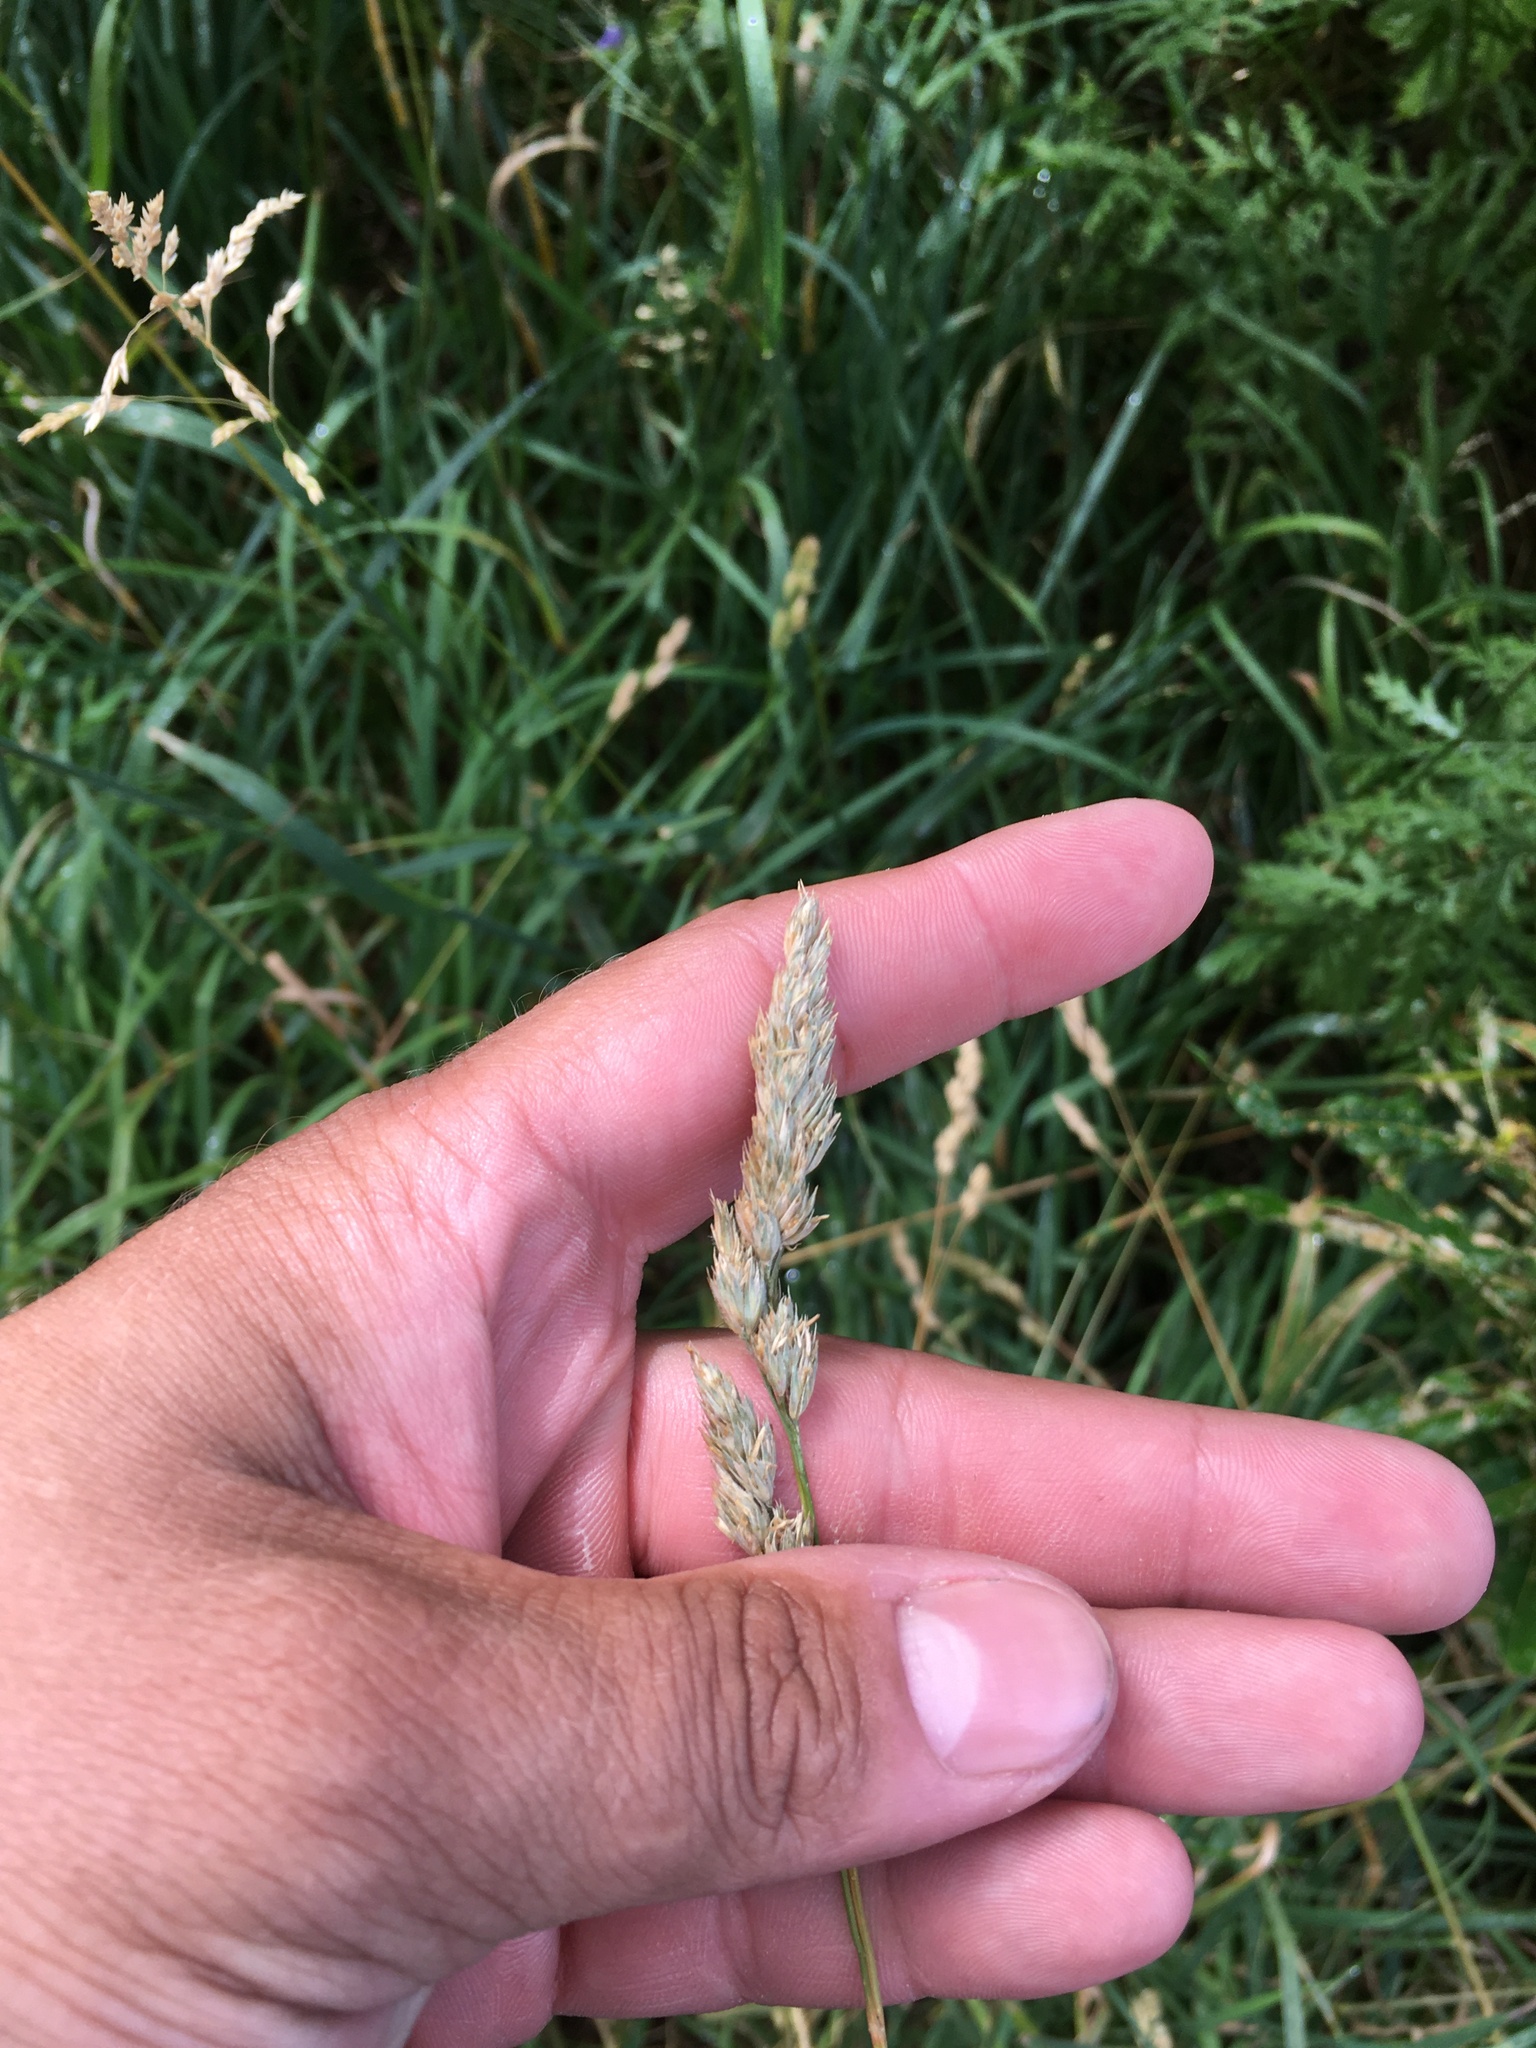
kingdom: Plantae
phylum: Tracheophyta
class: Liliopsida
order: Poales
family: Poaceae
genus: Dactylis
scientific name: Dactylis glomerata
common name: Orchardgrass
